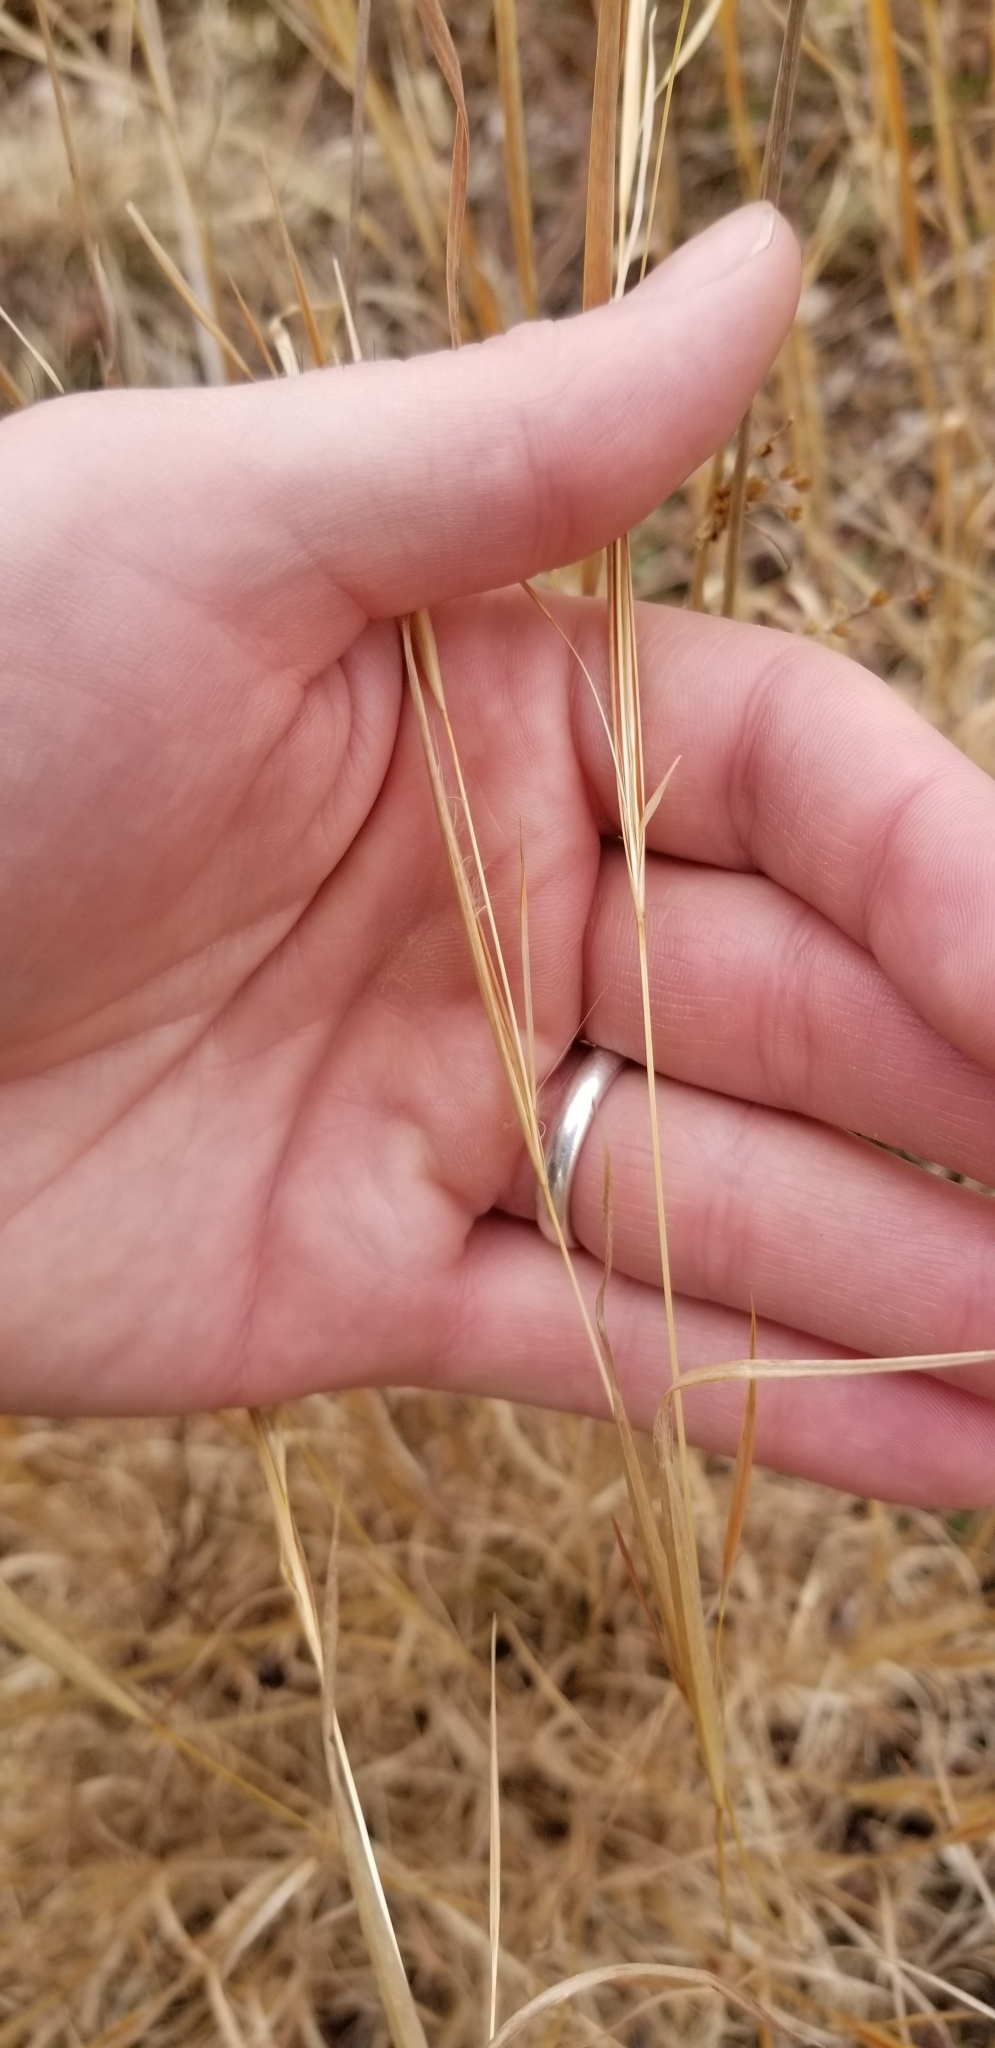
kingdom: Plantae
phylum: Tracheophyta
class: Liliopsida
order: Poales
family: Poaceae
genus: Andropogon
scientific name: Andropogon virginicus
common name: Broomsedge bluestem
